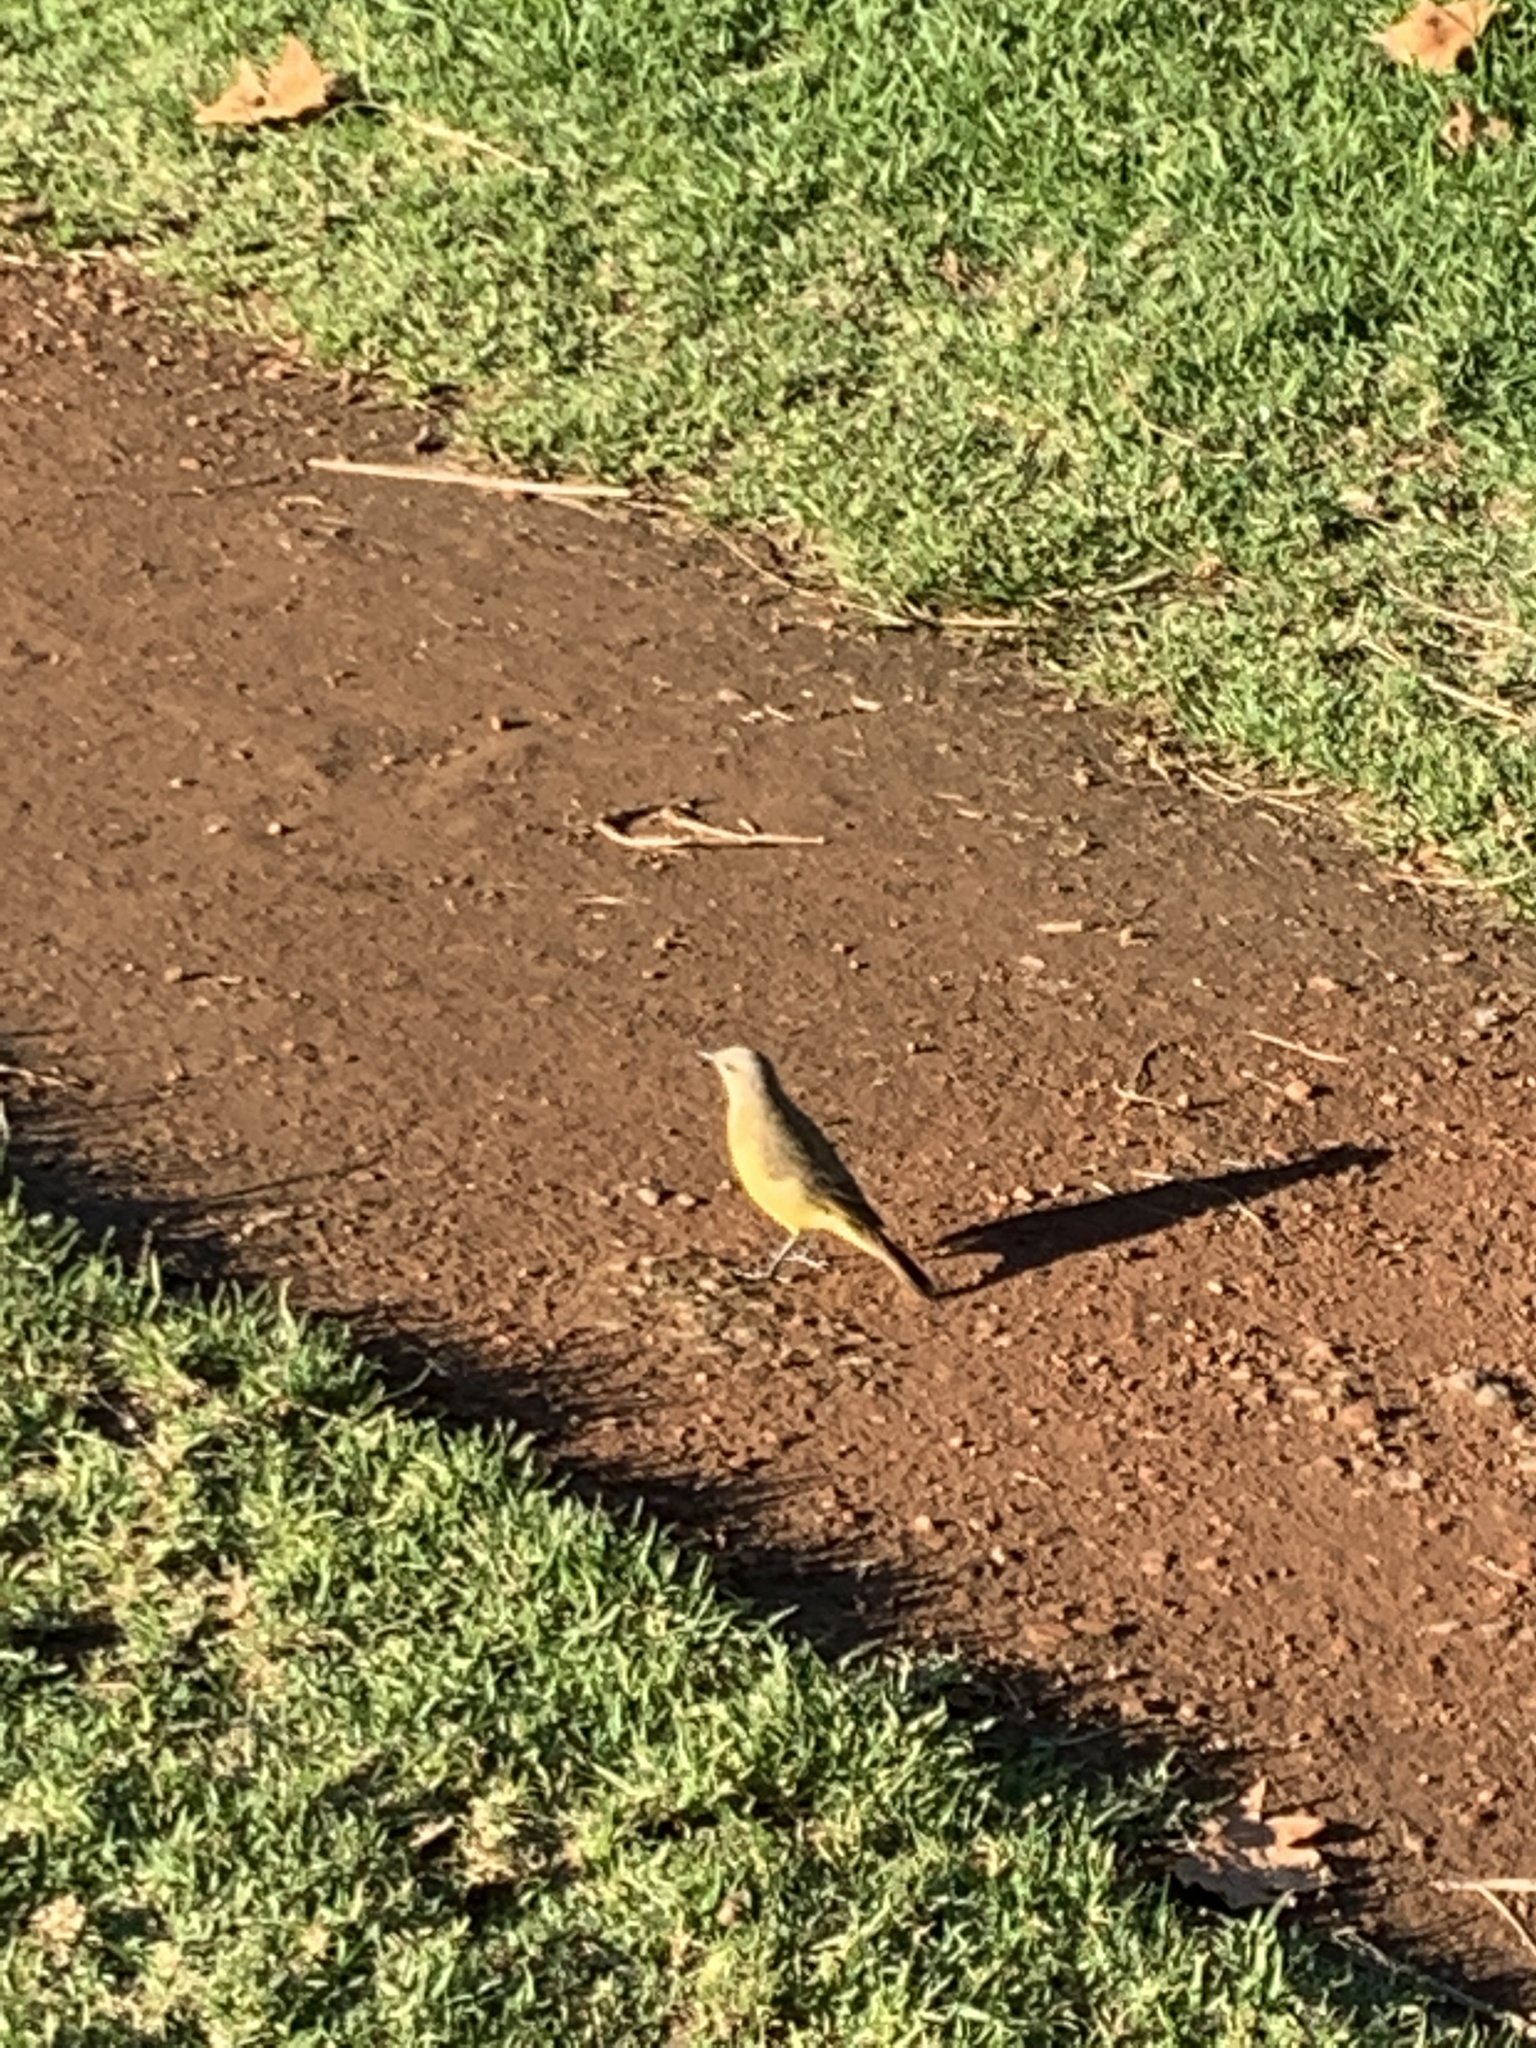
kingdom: Animalia
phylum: Chordata
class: Aves
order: Passeriformes
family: Tyrannidae
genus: Machetornis
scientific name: Machetornis rixosa
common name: Cattle tyrant
